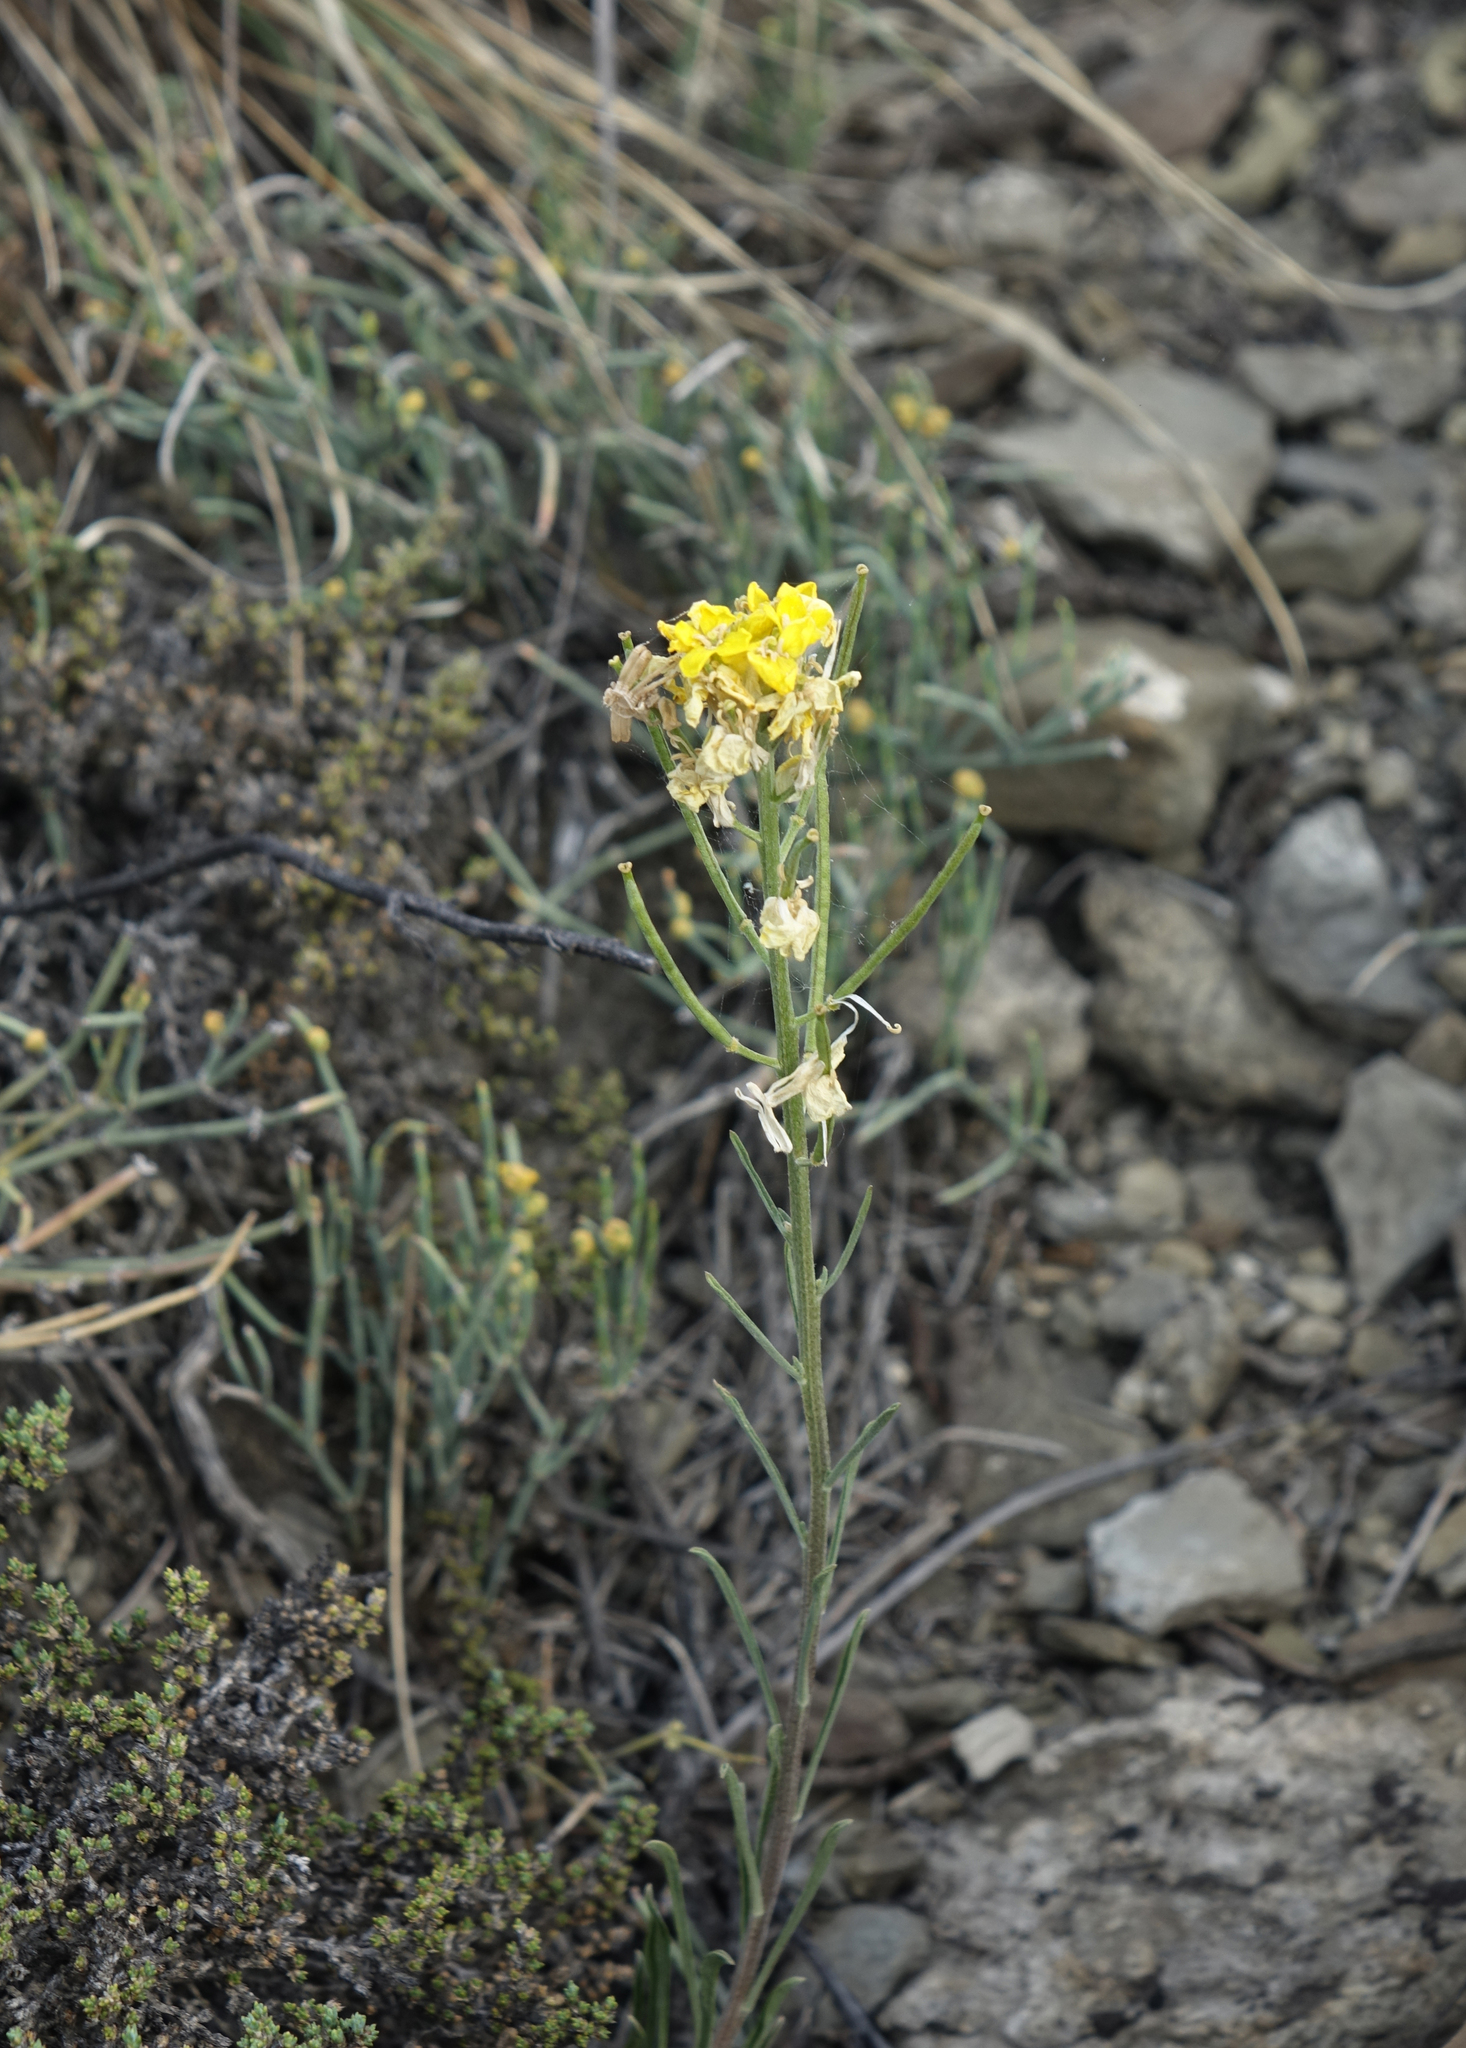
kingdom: Plantae
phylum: Tracheophyta
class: Magnoliopsida
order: Brassicales
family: Brassicaceae
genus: Erysimum
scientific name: Erysimum flavum
